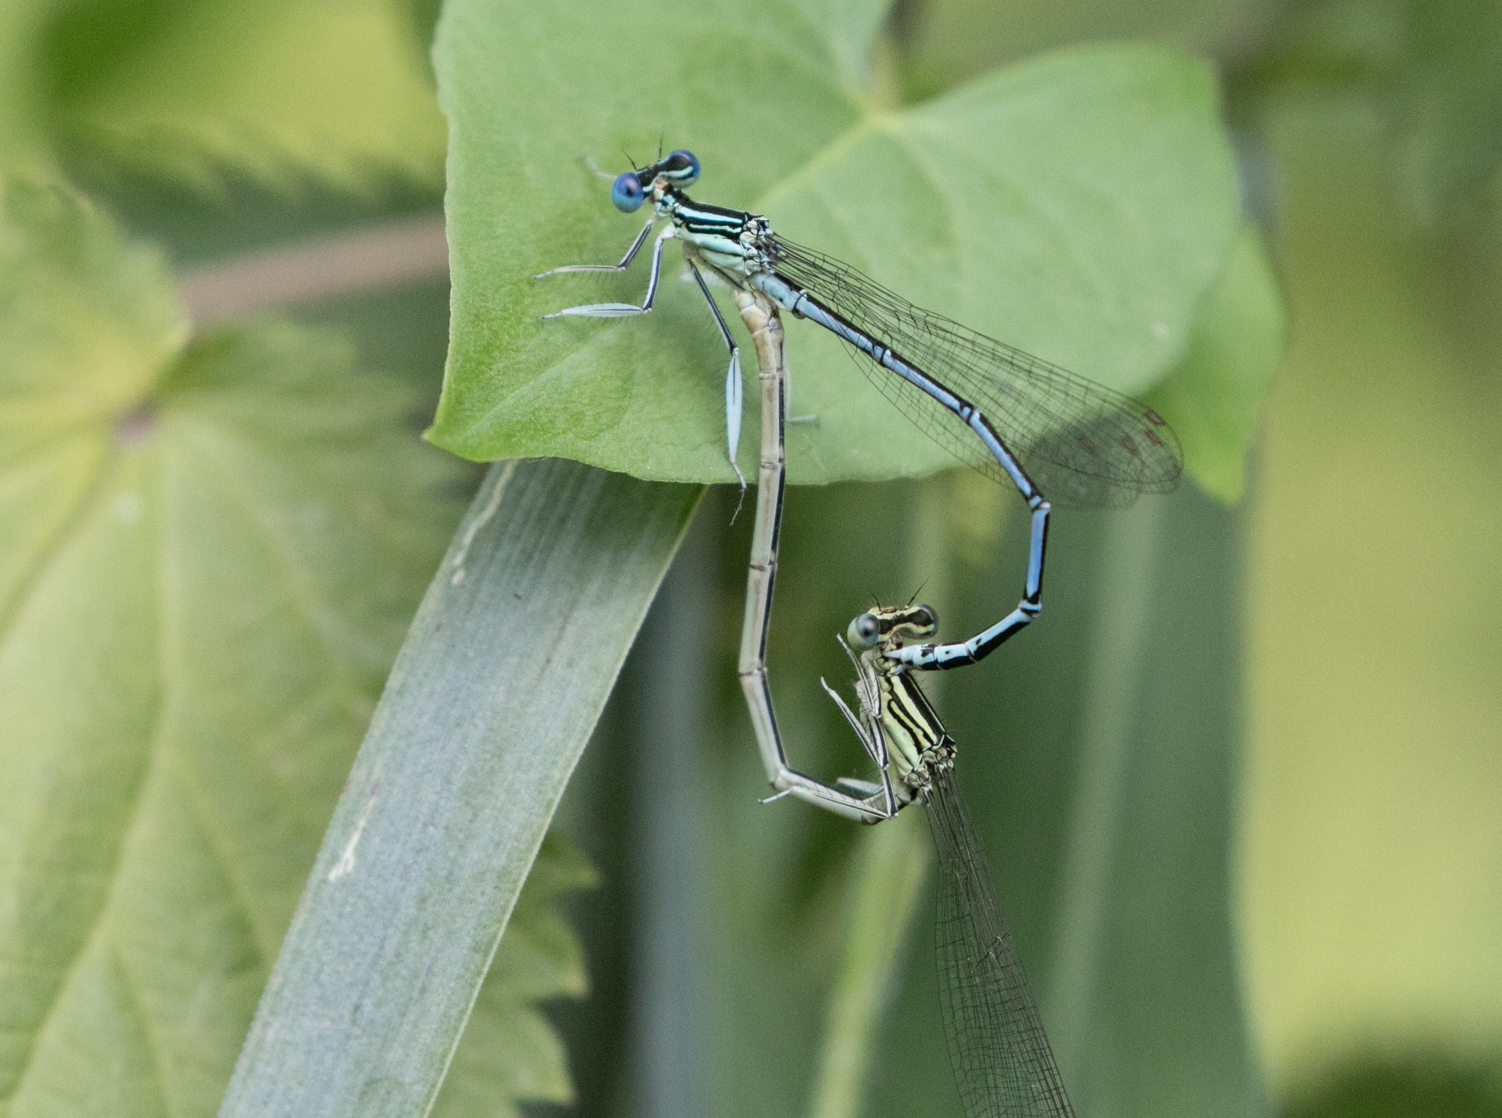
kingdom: Animalia
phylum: Arthropoda
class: Insecta
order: Odonata
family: Platycnemididae
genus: Platycnemis
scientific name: Platycnemis pennipes
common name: White-legged damselfly
